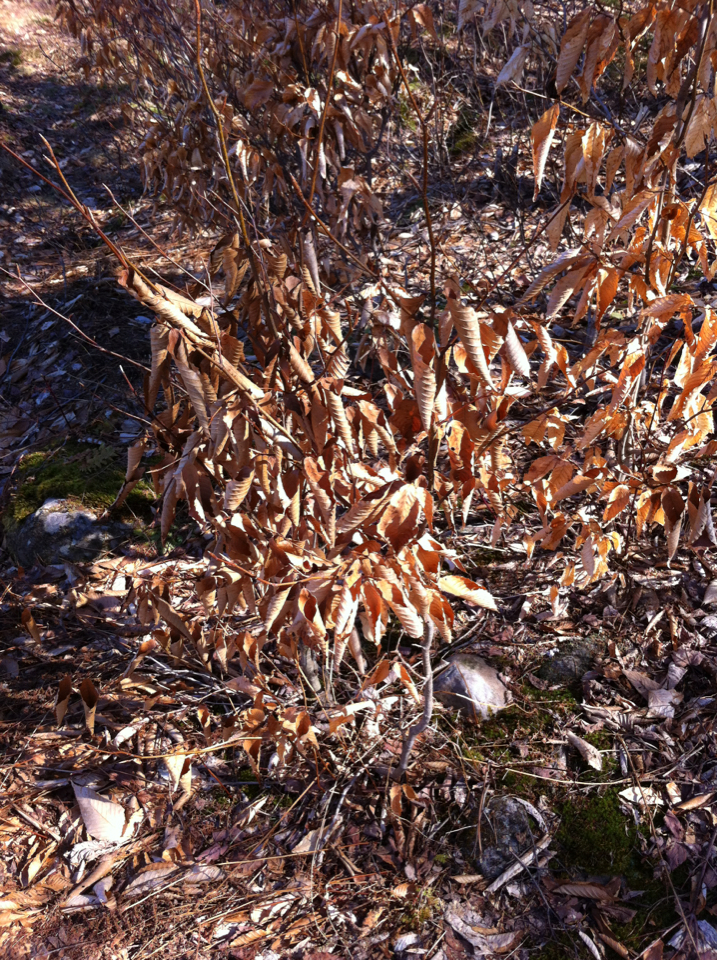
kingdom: Plantae
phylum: Tracheophyta
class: Magnoliopsida
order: Fagales
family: Fagaceae
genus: Fagus
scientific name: Fagus grandifolia
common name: American beech
